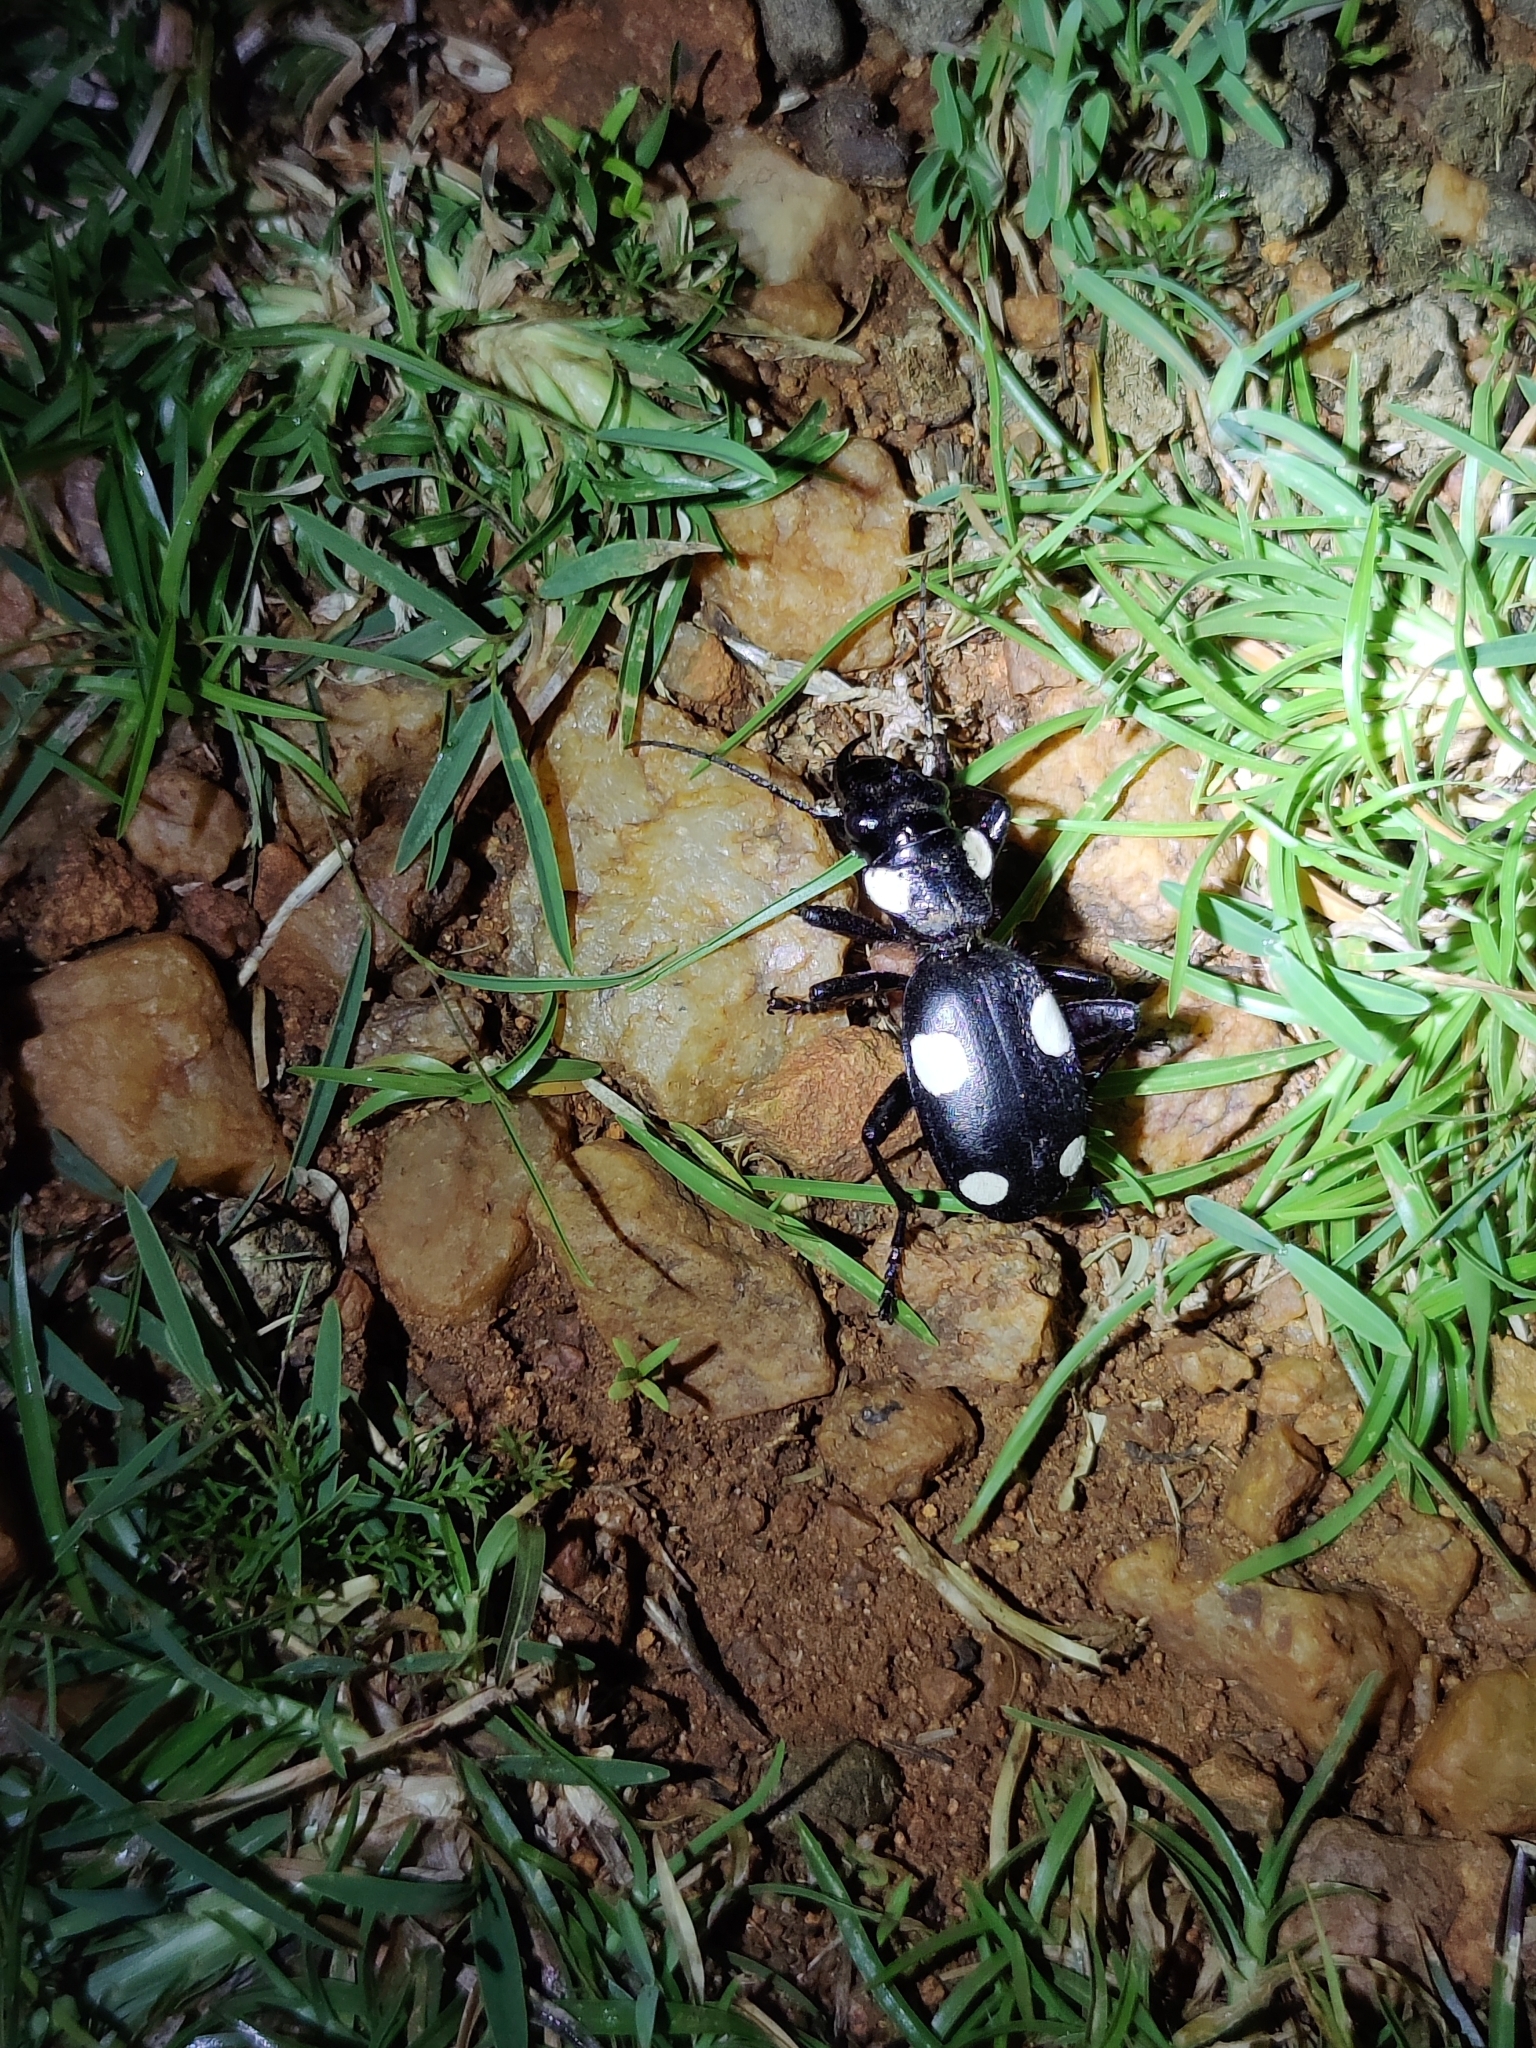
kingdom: Animalia
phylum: Arthropoda
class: Insecta
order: Coleoptera
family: Carabidae
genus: Anthia
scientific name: Anthia sexguttata
